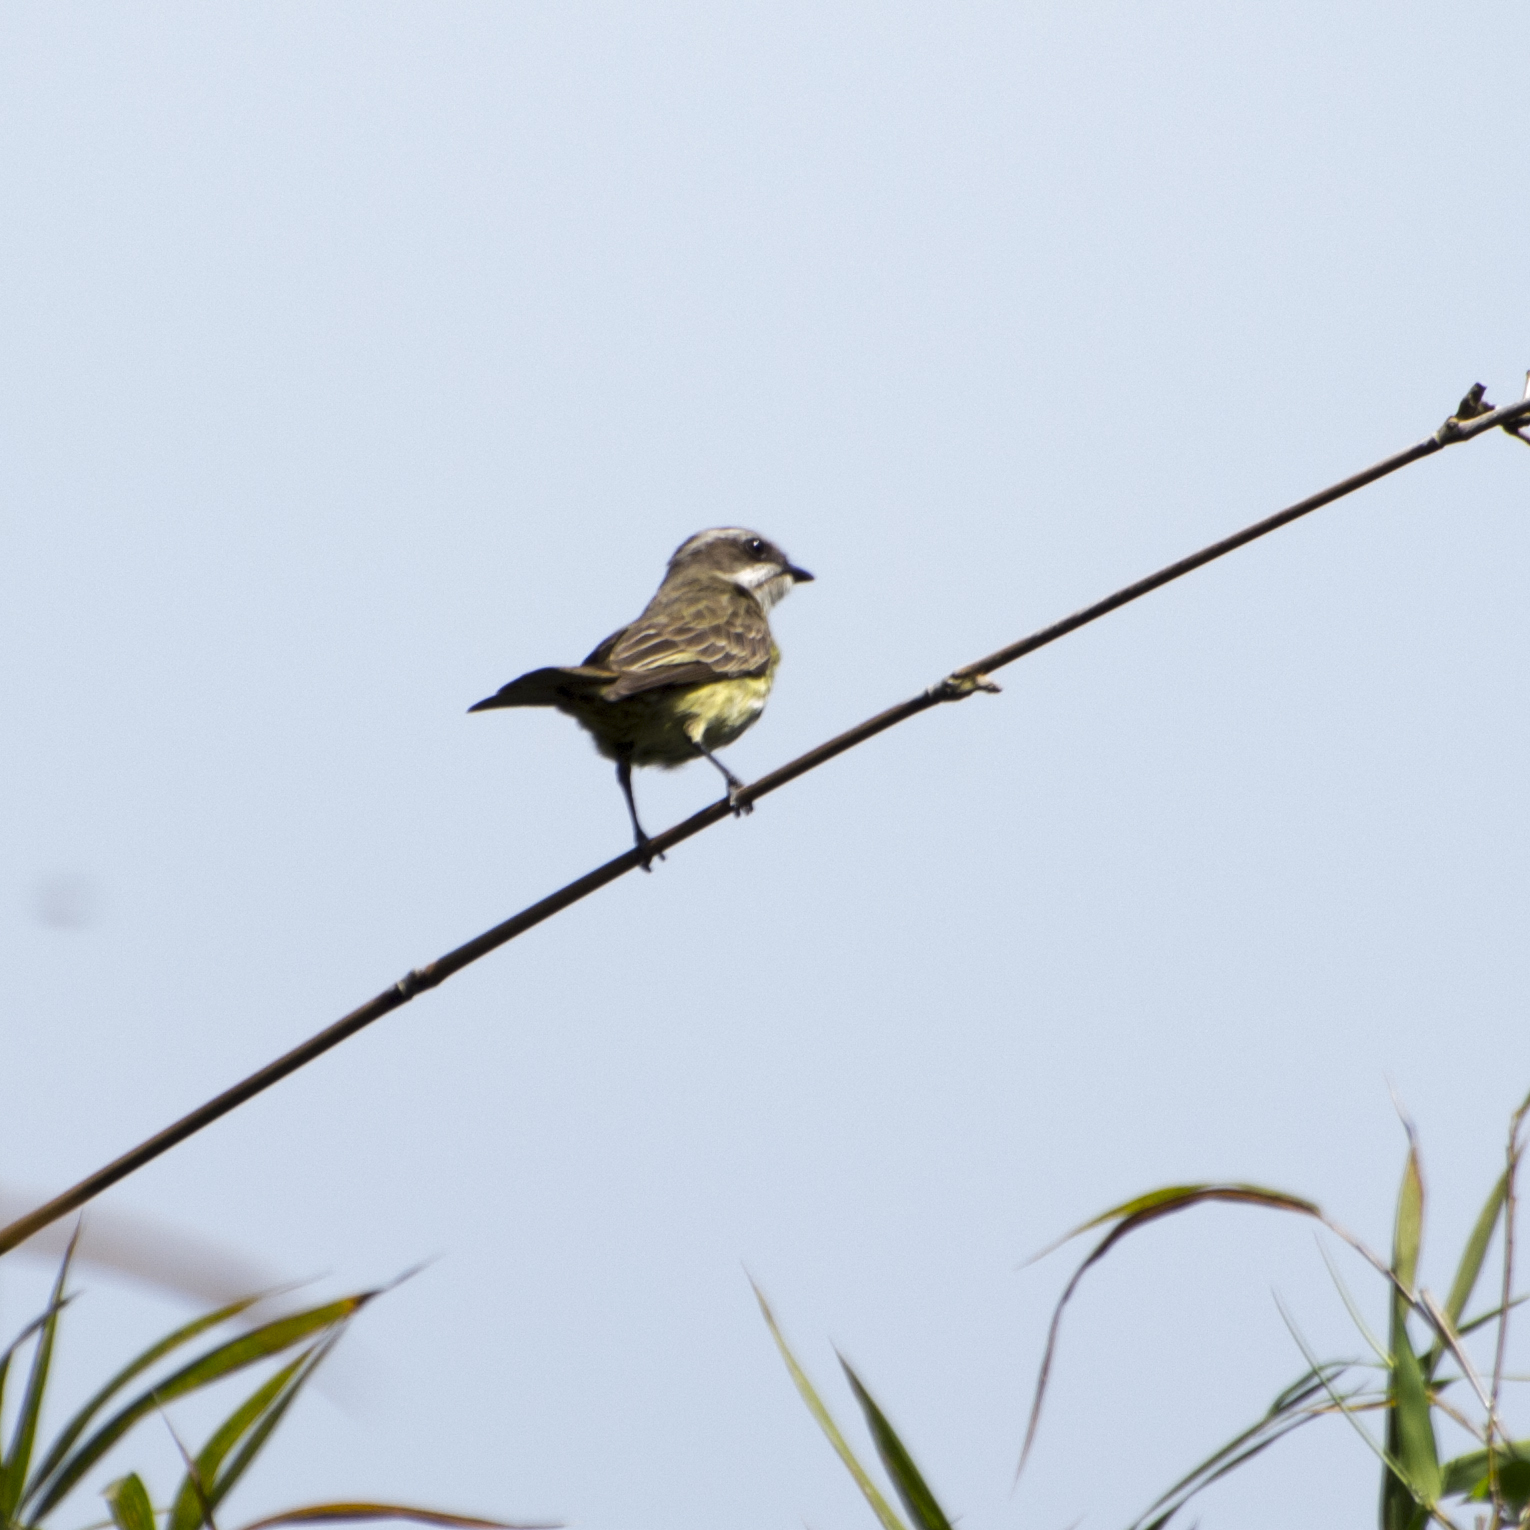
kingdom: Animalia
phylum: Chordata
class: Aves
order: Passeriformes
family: Tyrannidae
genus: Legatus
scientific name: Legatus leucophaius
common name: Piratic flycatcher
